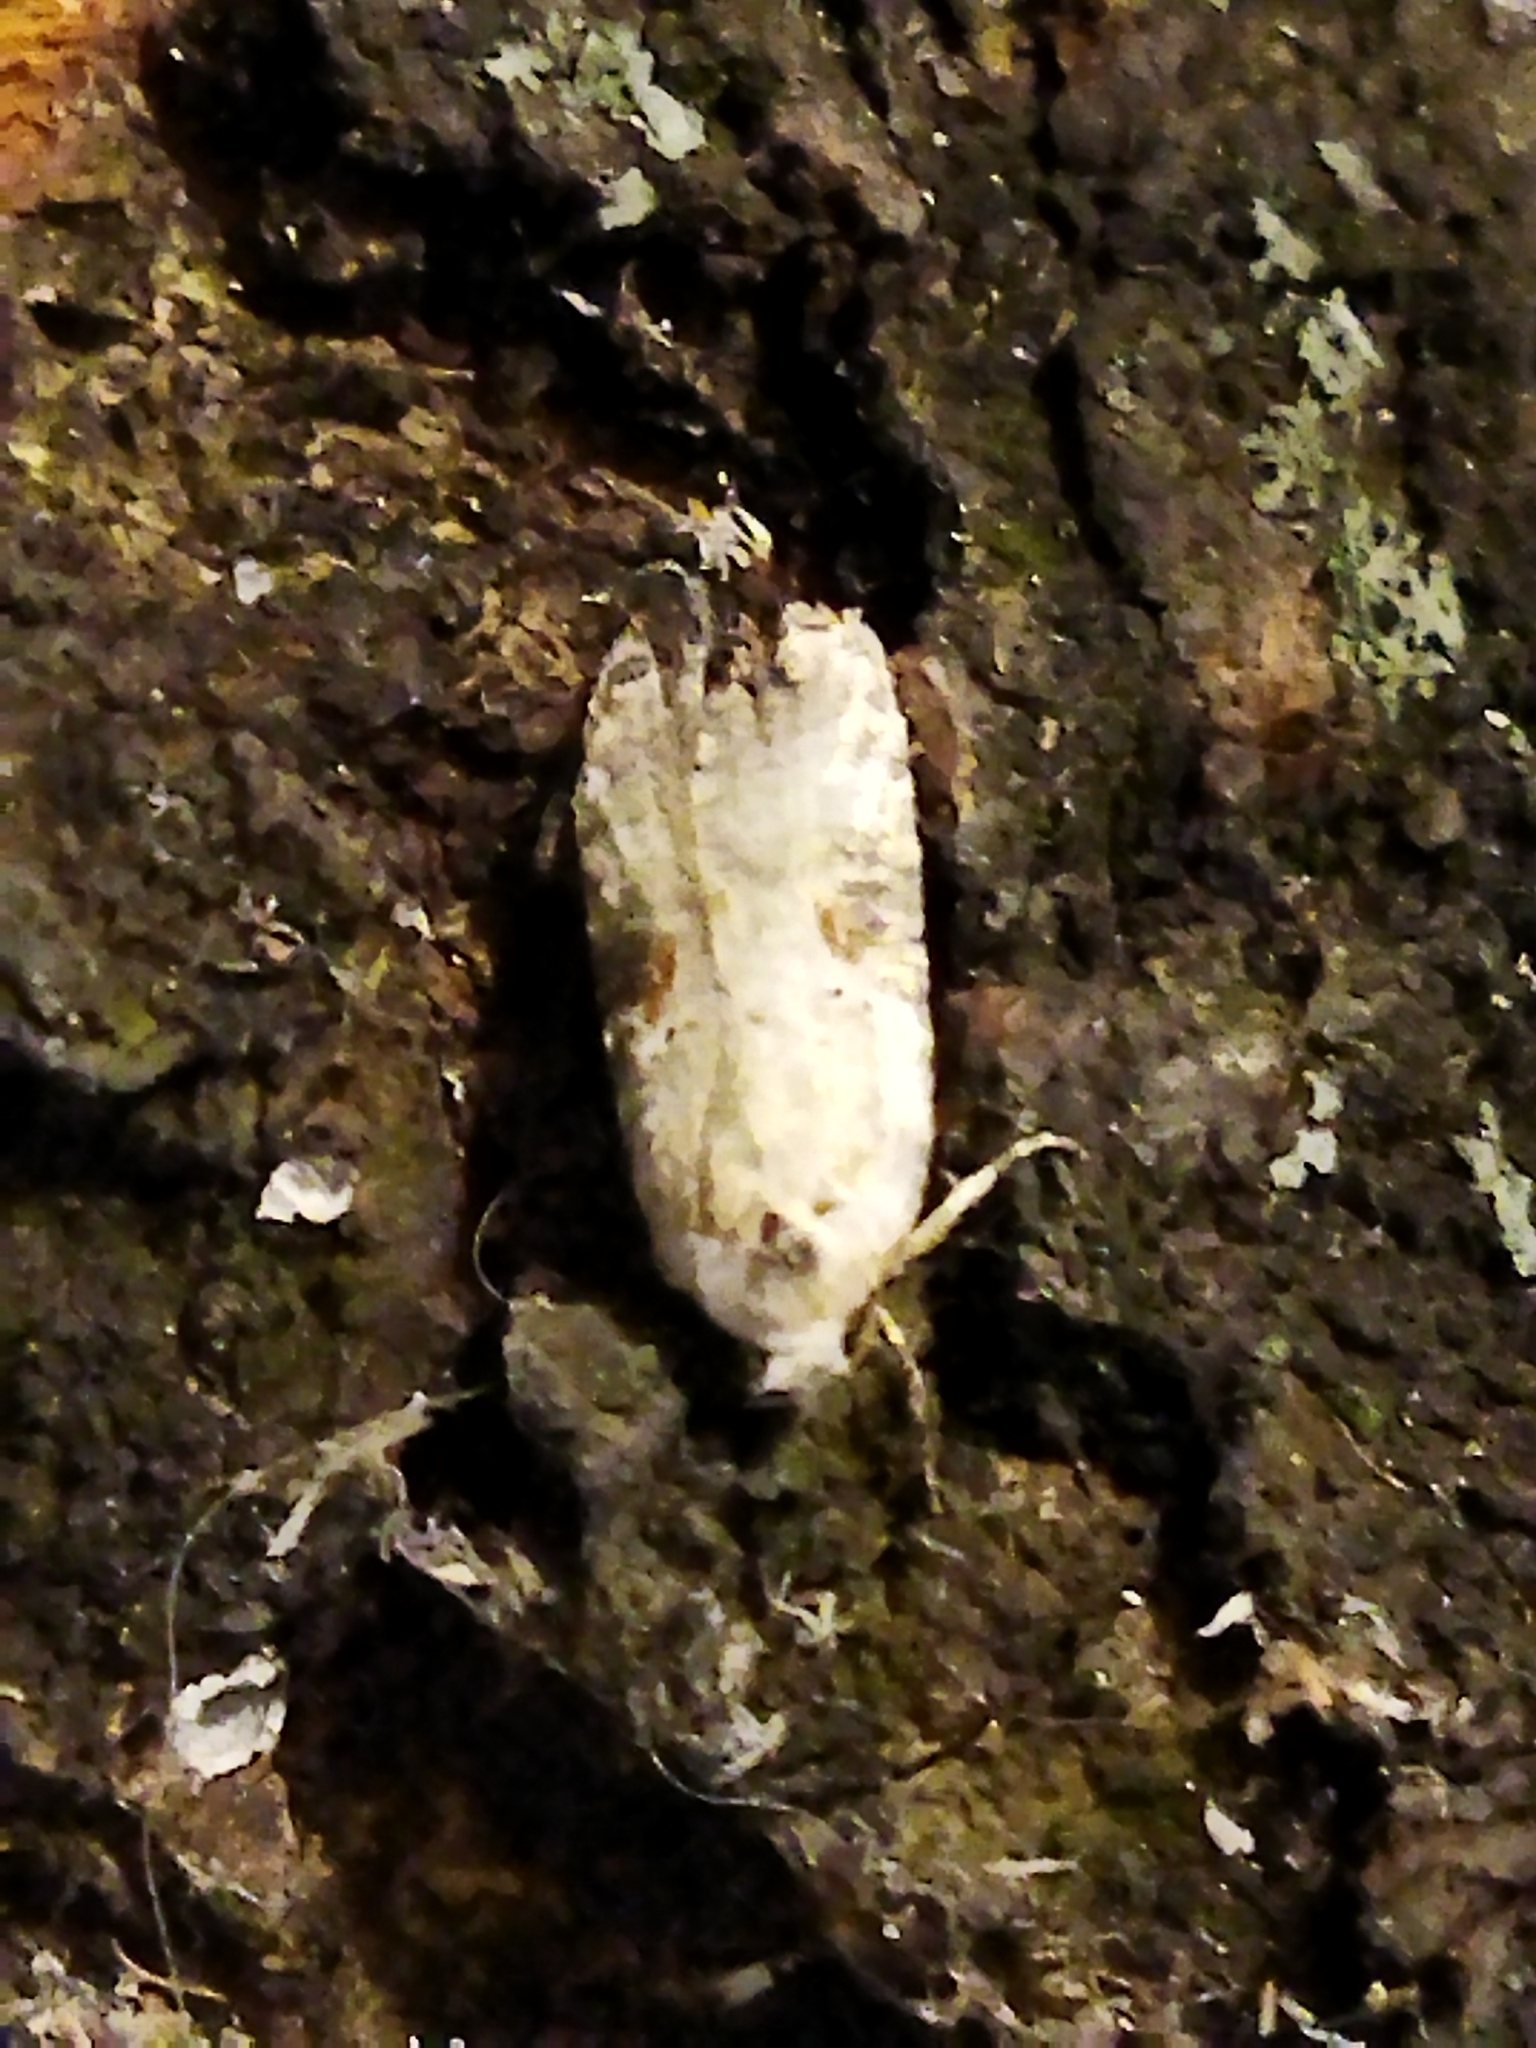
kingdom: Animalia
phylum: Arthropoda
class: Insecta
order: Lepidoptera
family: Depressariidae
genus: Agonopterix
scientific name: Agonopterix alstroemeriana
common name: Moth
